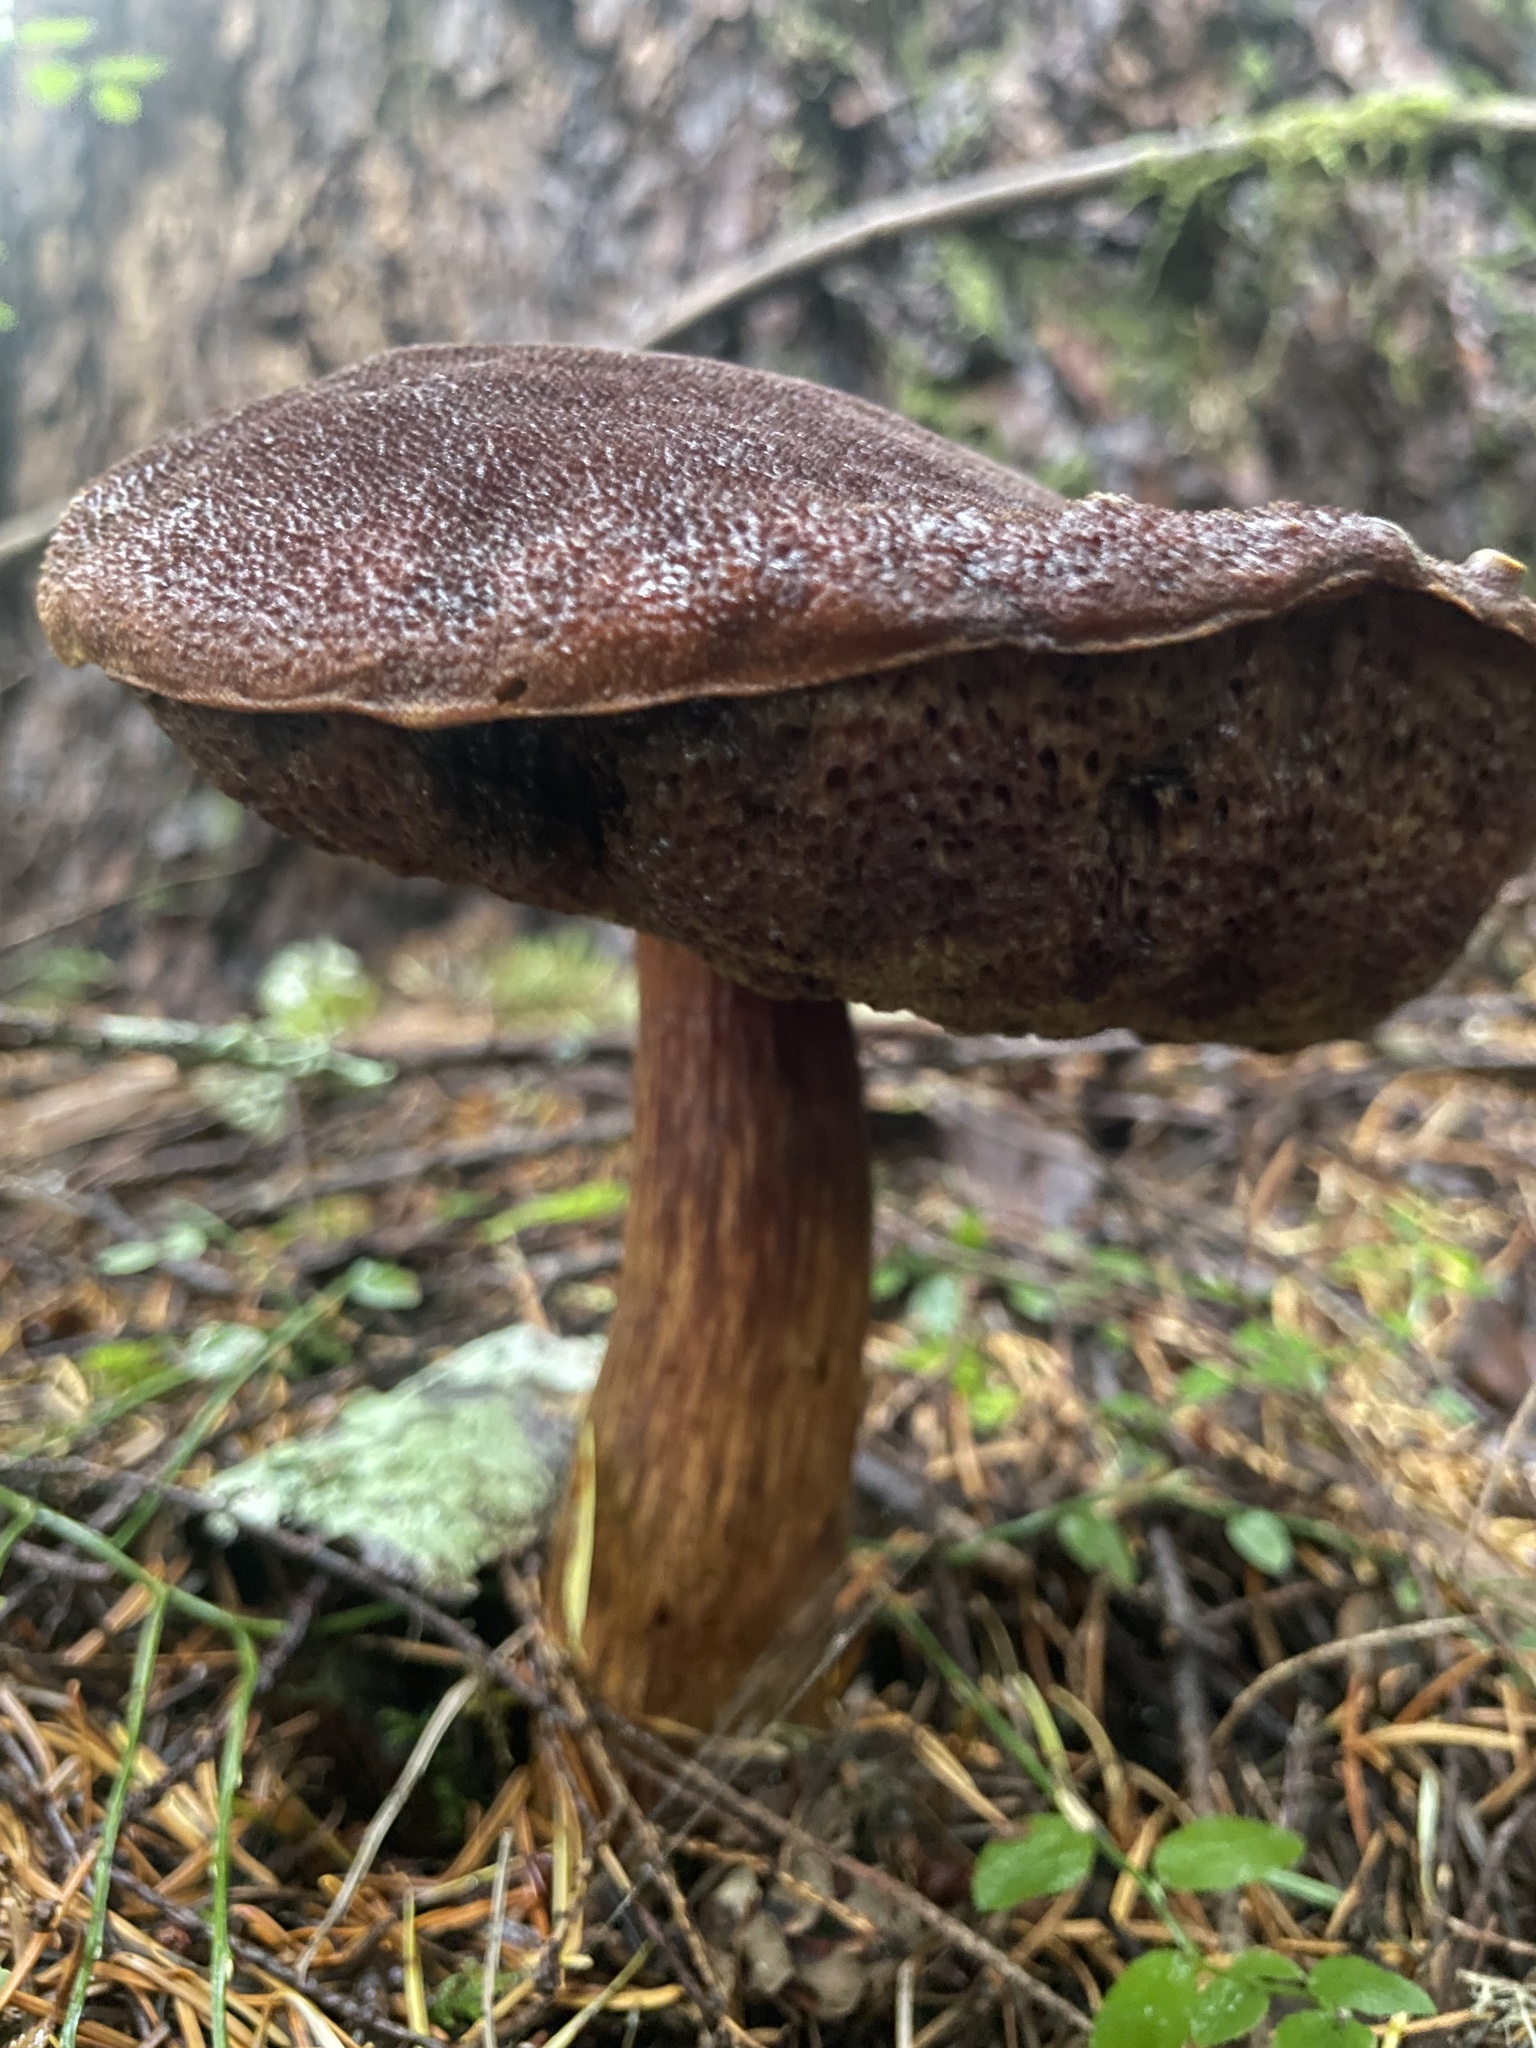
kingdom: Fungi
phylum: Basidiomycota
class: Agaricomycetes
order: Boletales
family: Boletaceae
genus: Aureoboletus
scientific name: Aureoboletus mirabilis
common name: Admirable bolete
